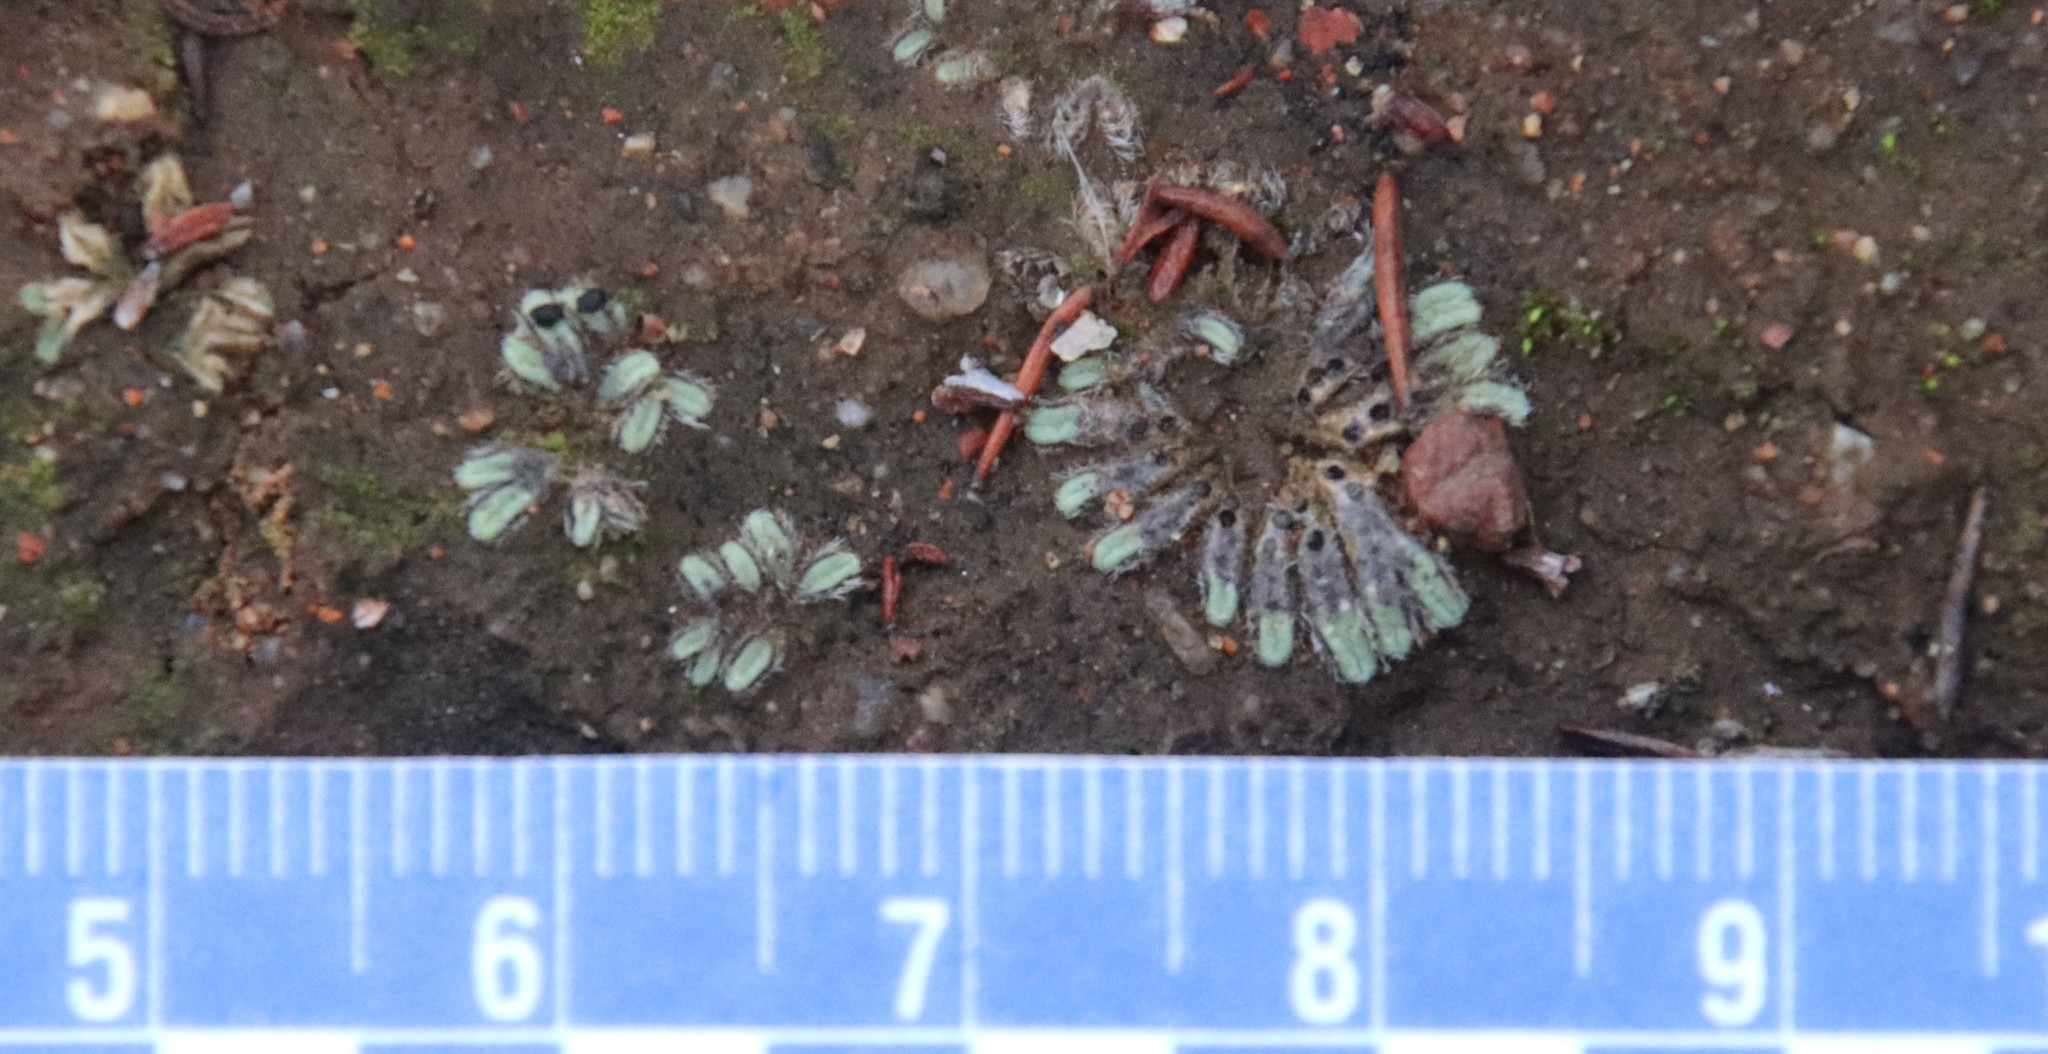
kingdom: Plantae
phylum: Marchantiophyta
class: Marchantiopsida
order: Marchantiales
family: Ricciaceae
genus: Riccia
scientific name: Riccia trichocarpa
